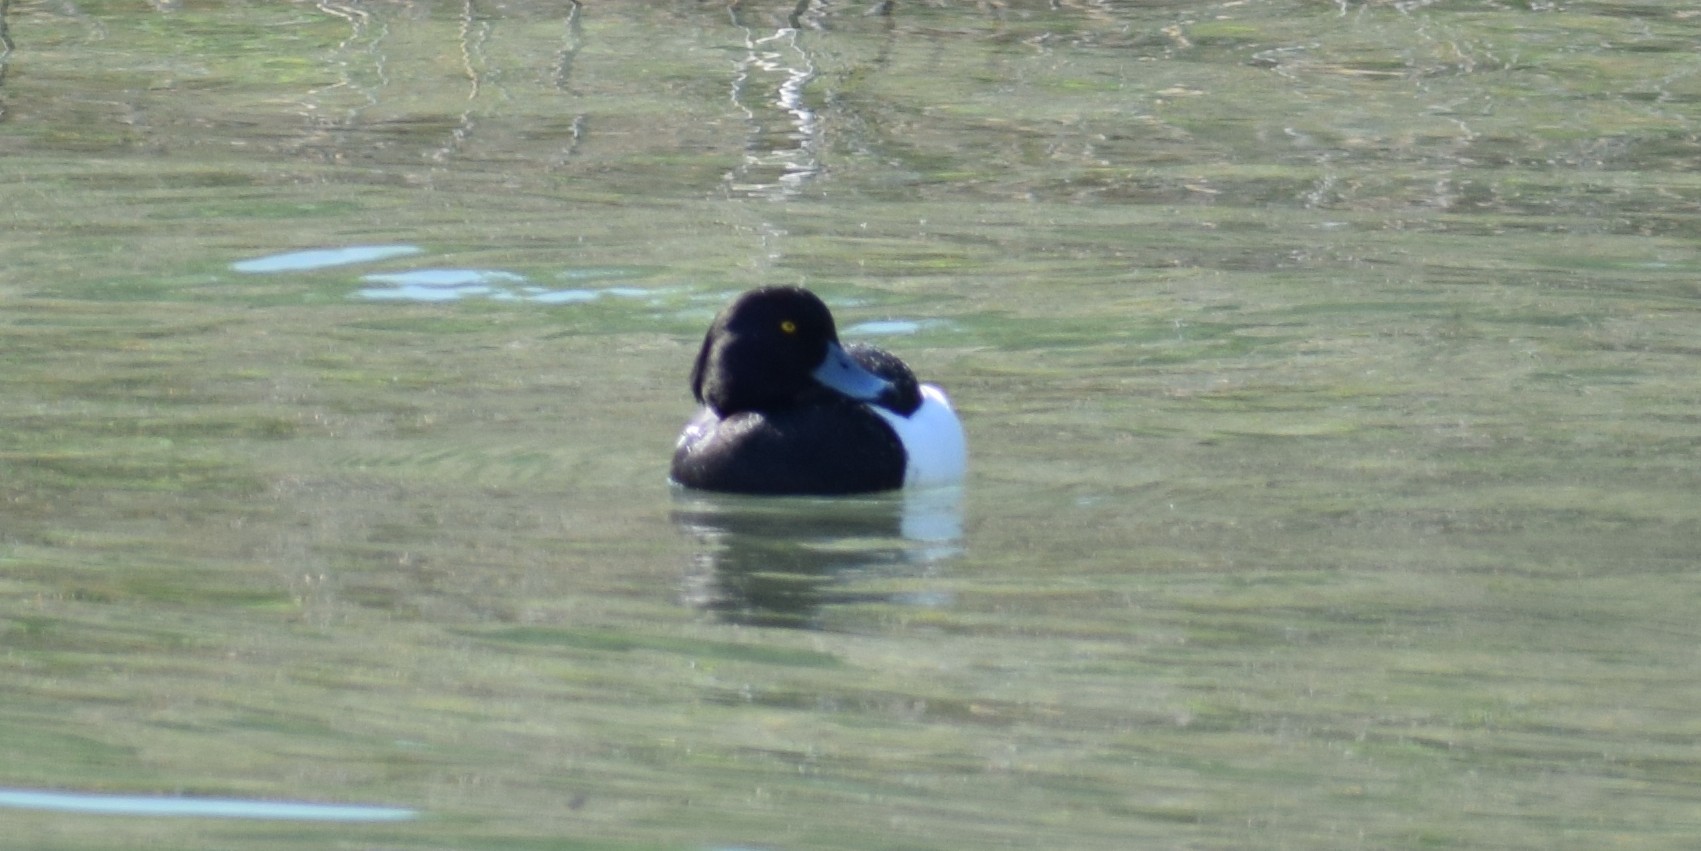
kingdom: Animalia
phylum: Chordata
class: Aves
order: Anseriformes
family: Anatidae
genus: Aythya
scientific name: Aythya fuligula
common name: Tufted duck
